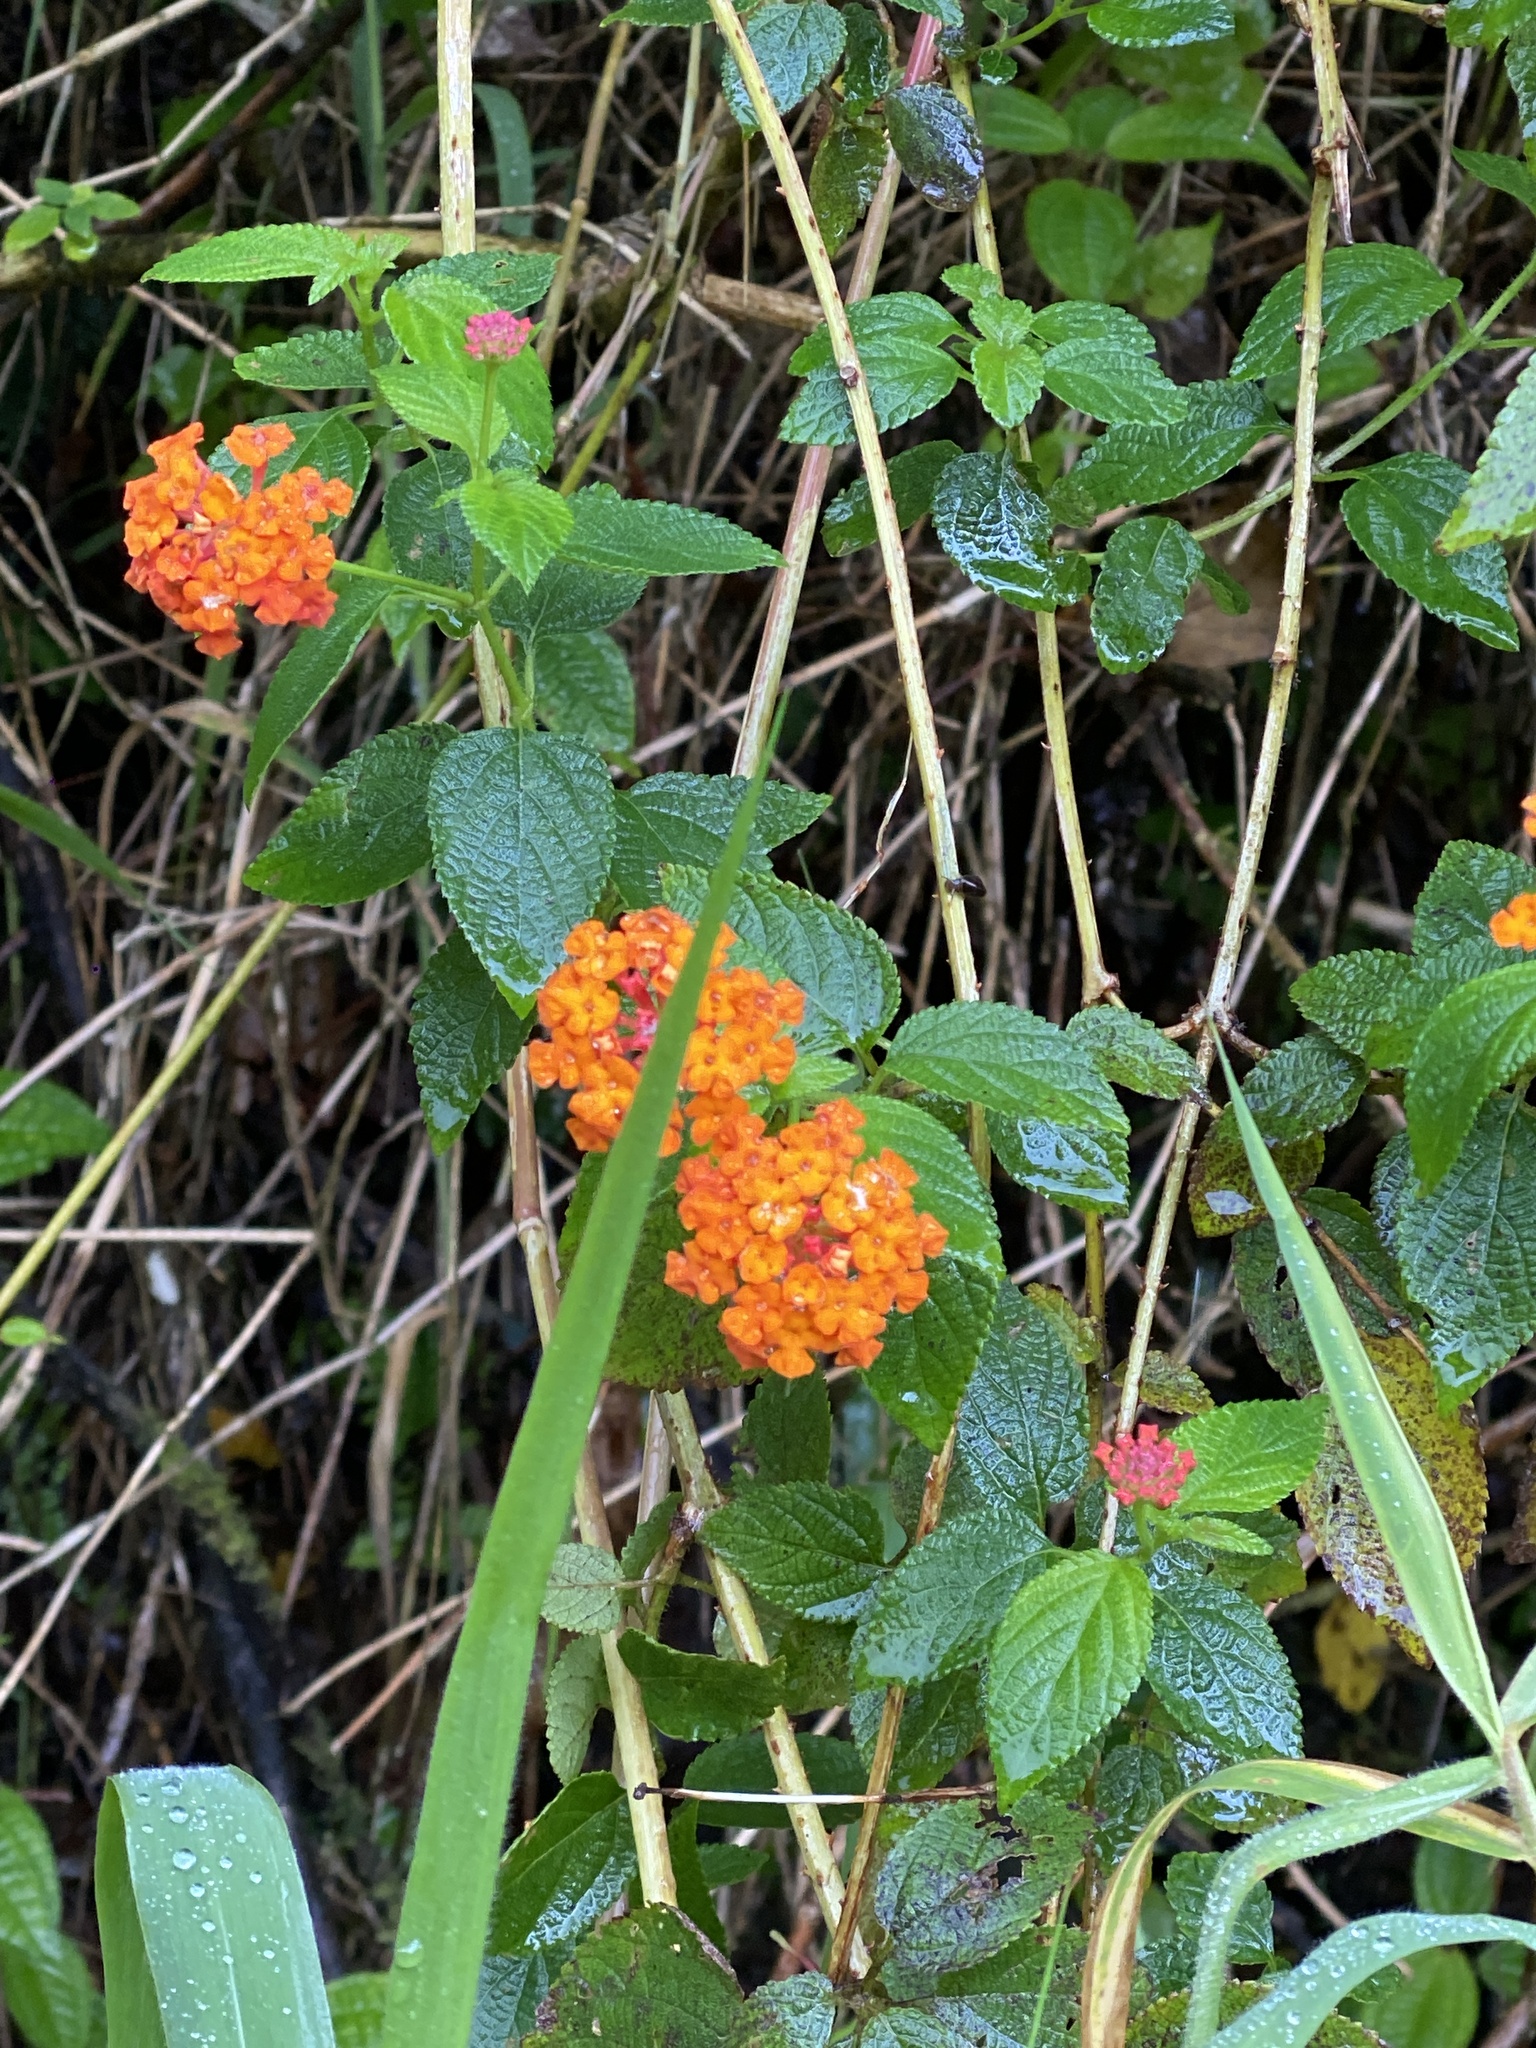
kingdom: Plantae
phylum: Tracheophyta
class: Magnoliopsida
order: Lamiales
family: Verbenaceae
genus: Lantana
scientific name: Lantana camara
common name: Lantana
